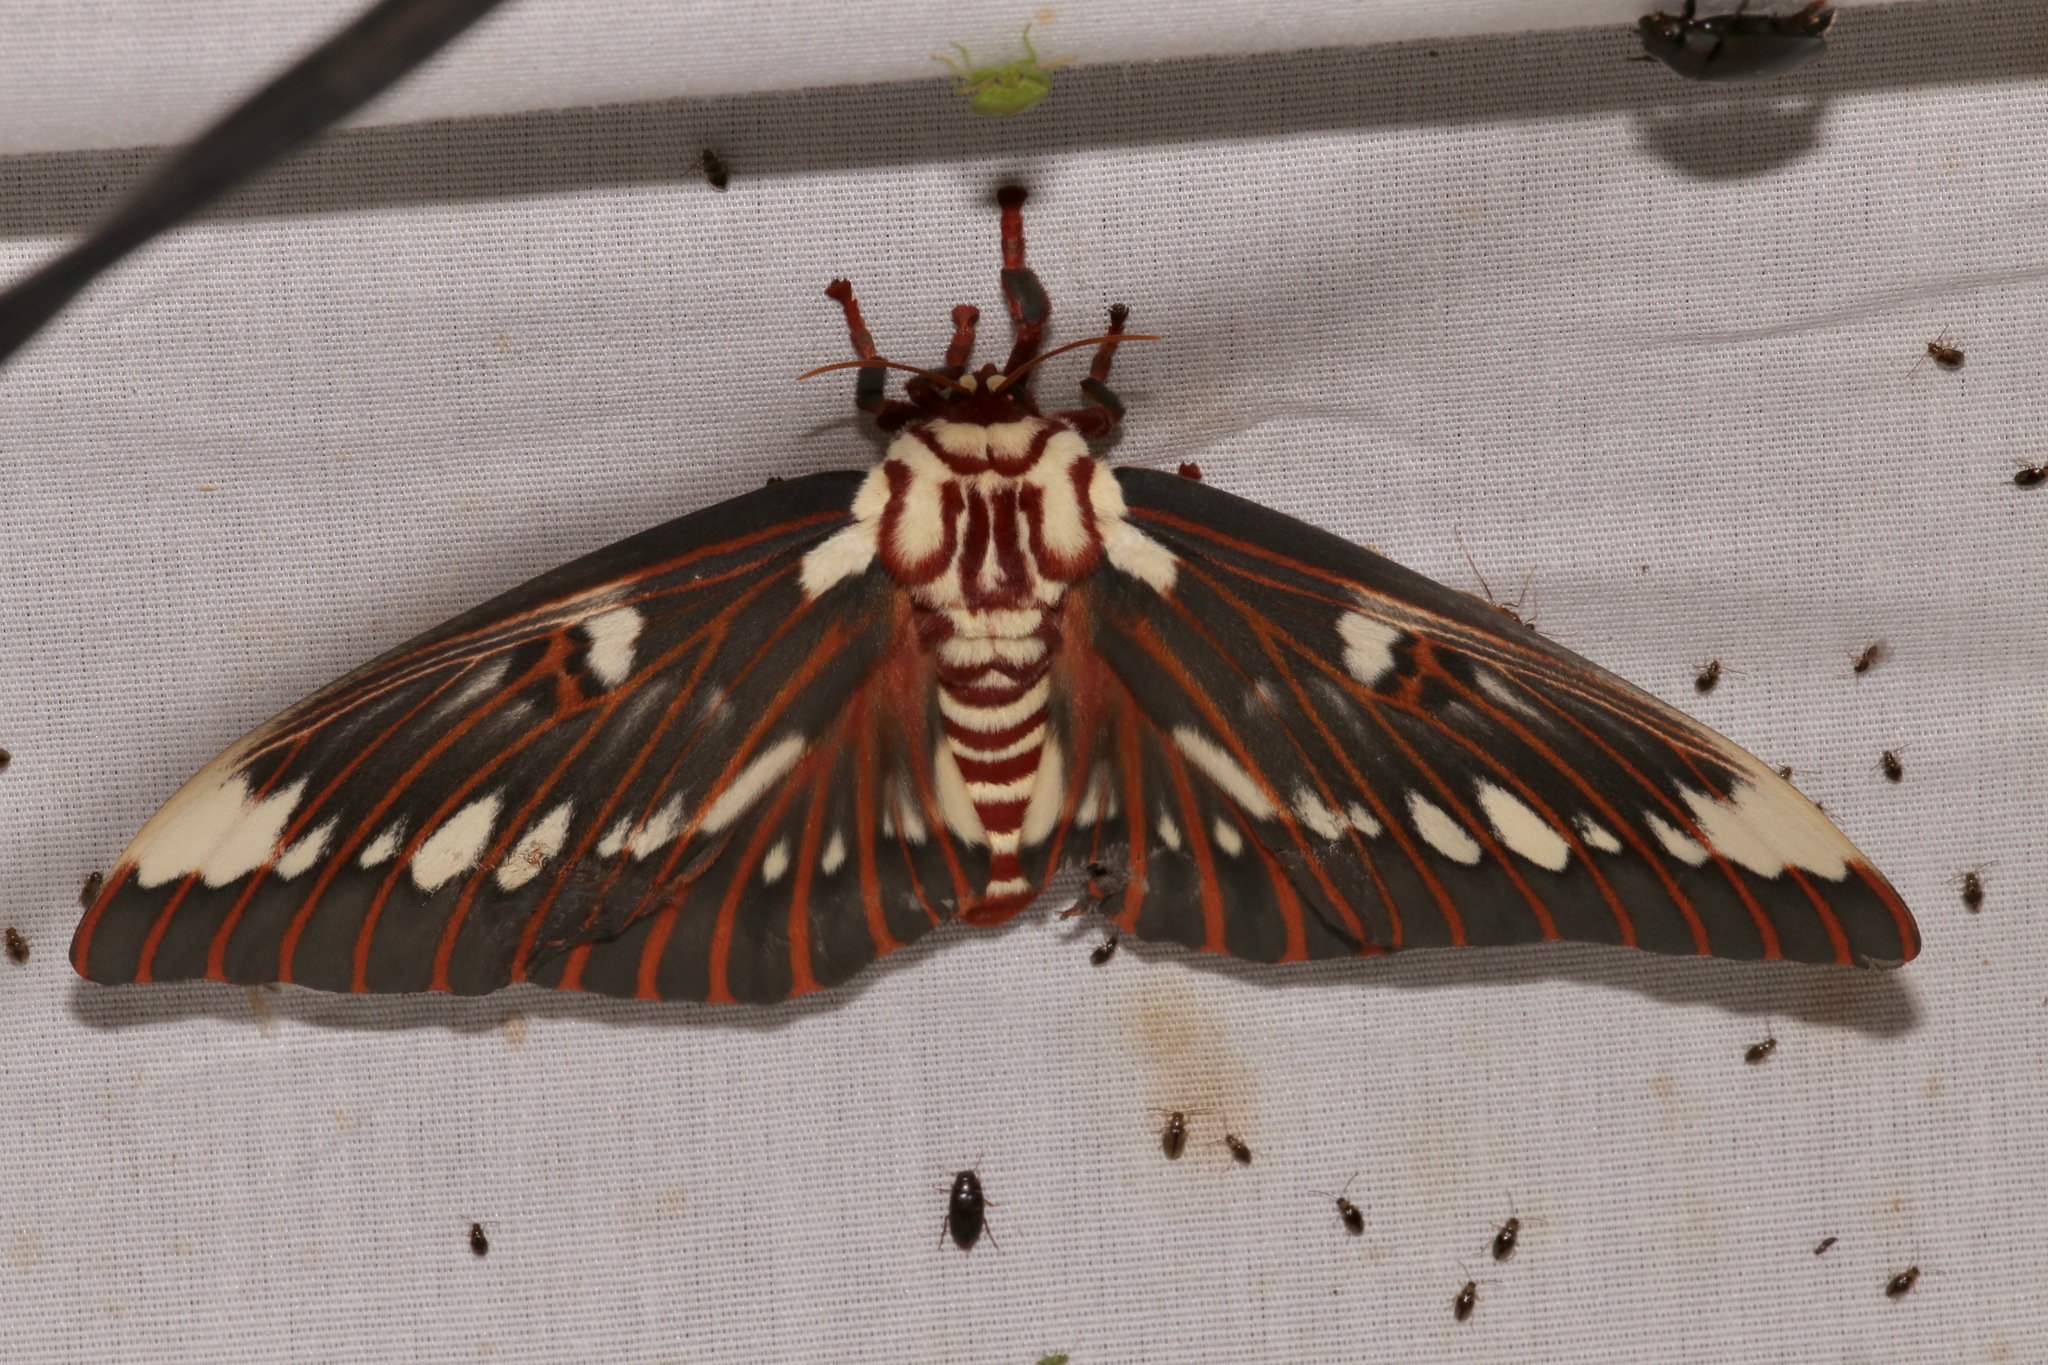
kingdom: Animalia
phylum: Arthropoda
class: Insecta
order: Lepidoptera
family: Saturniidae
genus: Citheronia
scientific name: Citheronia splendens
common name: Splendid royal moth
